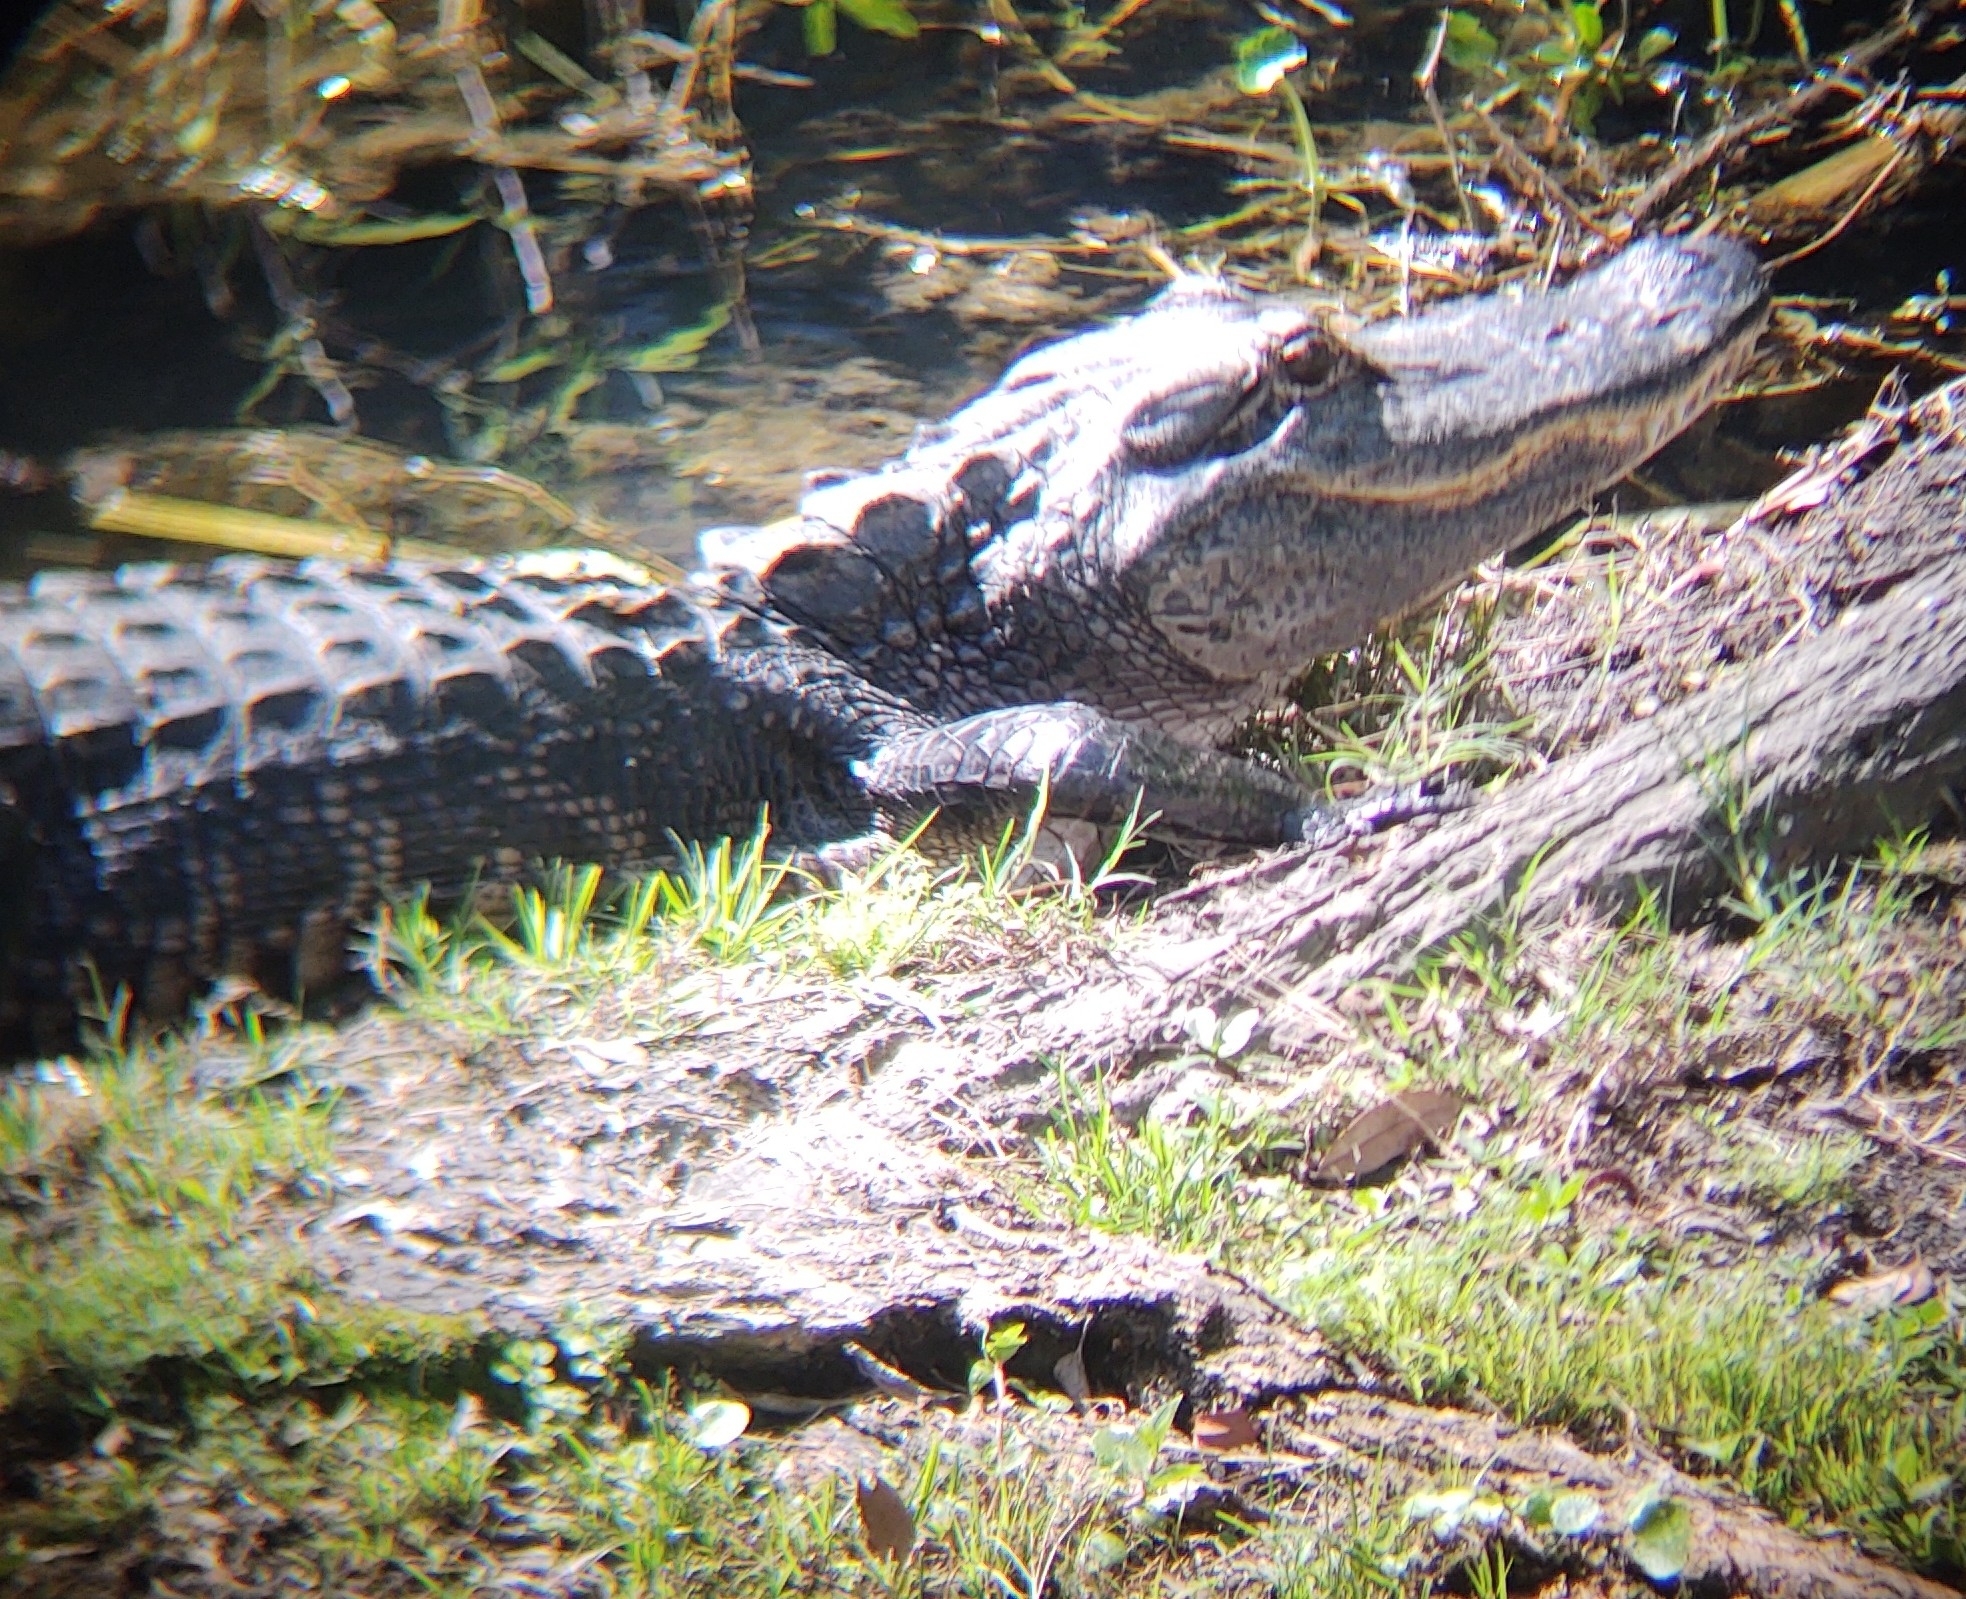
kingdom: Animalia
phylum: Chordata
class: Crocodylia
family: Alligatoridae
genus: Alligator
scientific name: Alligator mississippiensis
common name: American alligator
